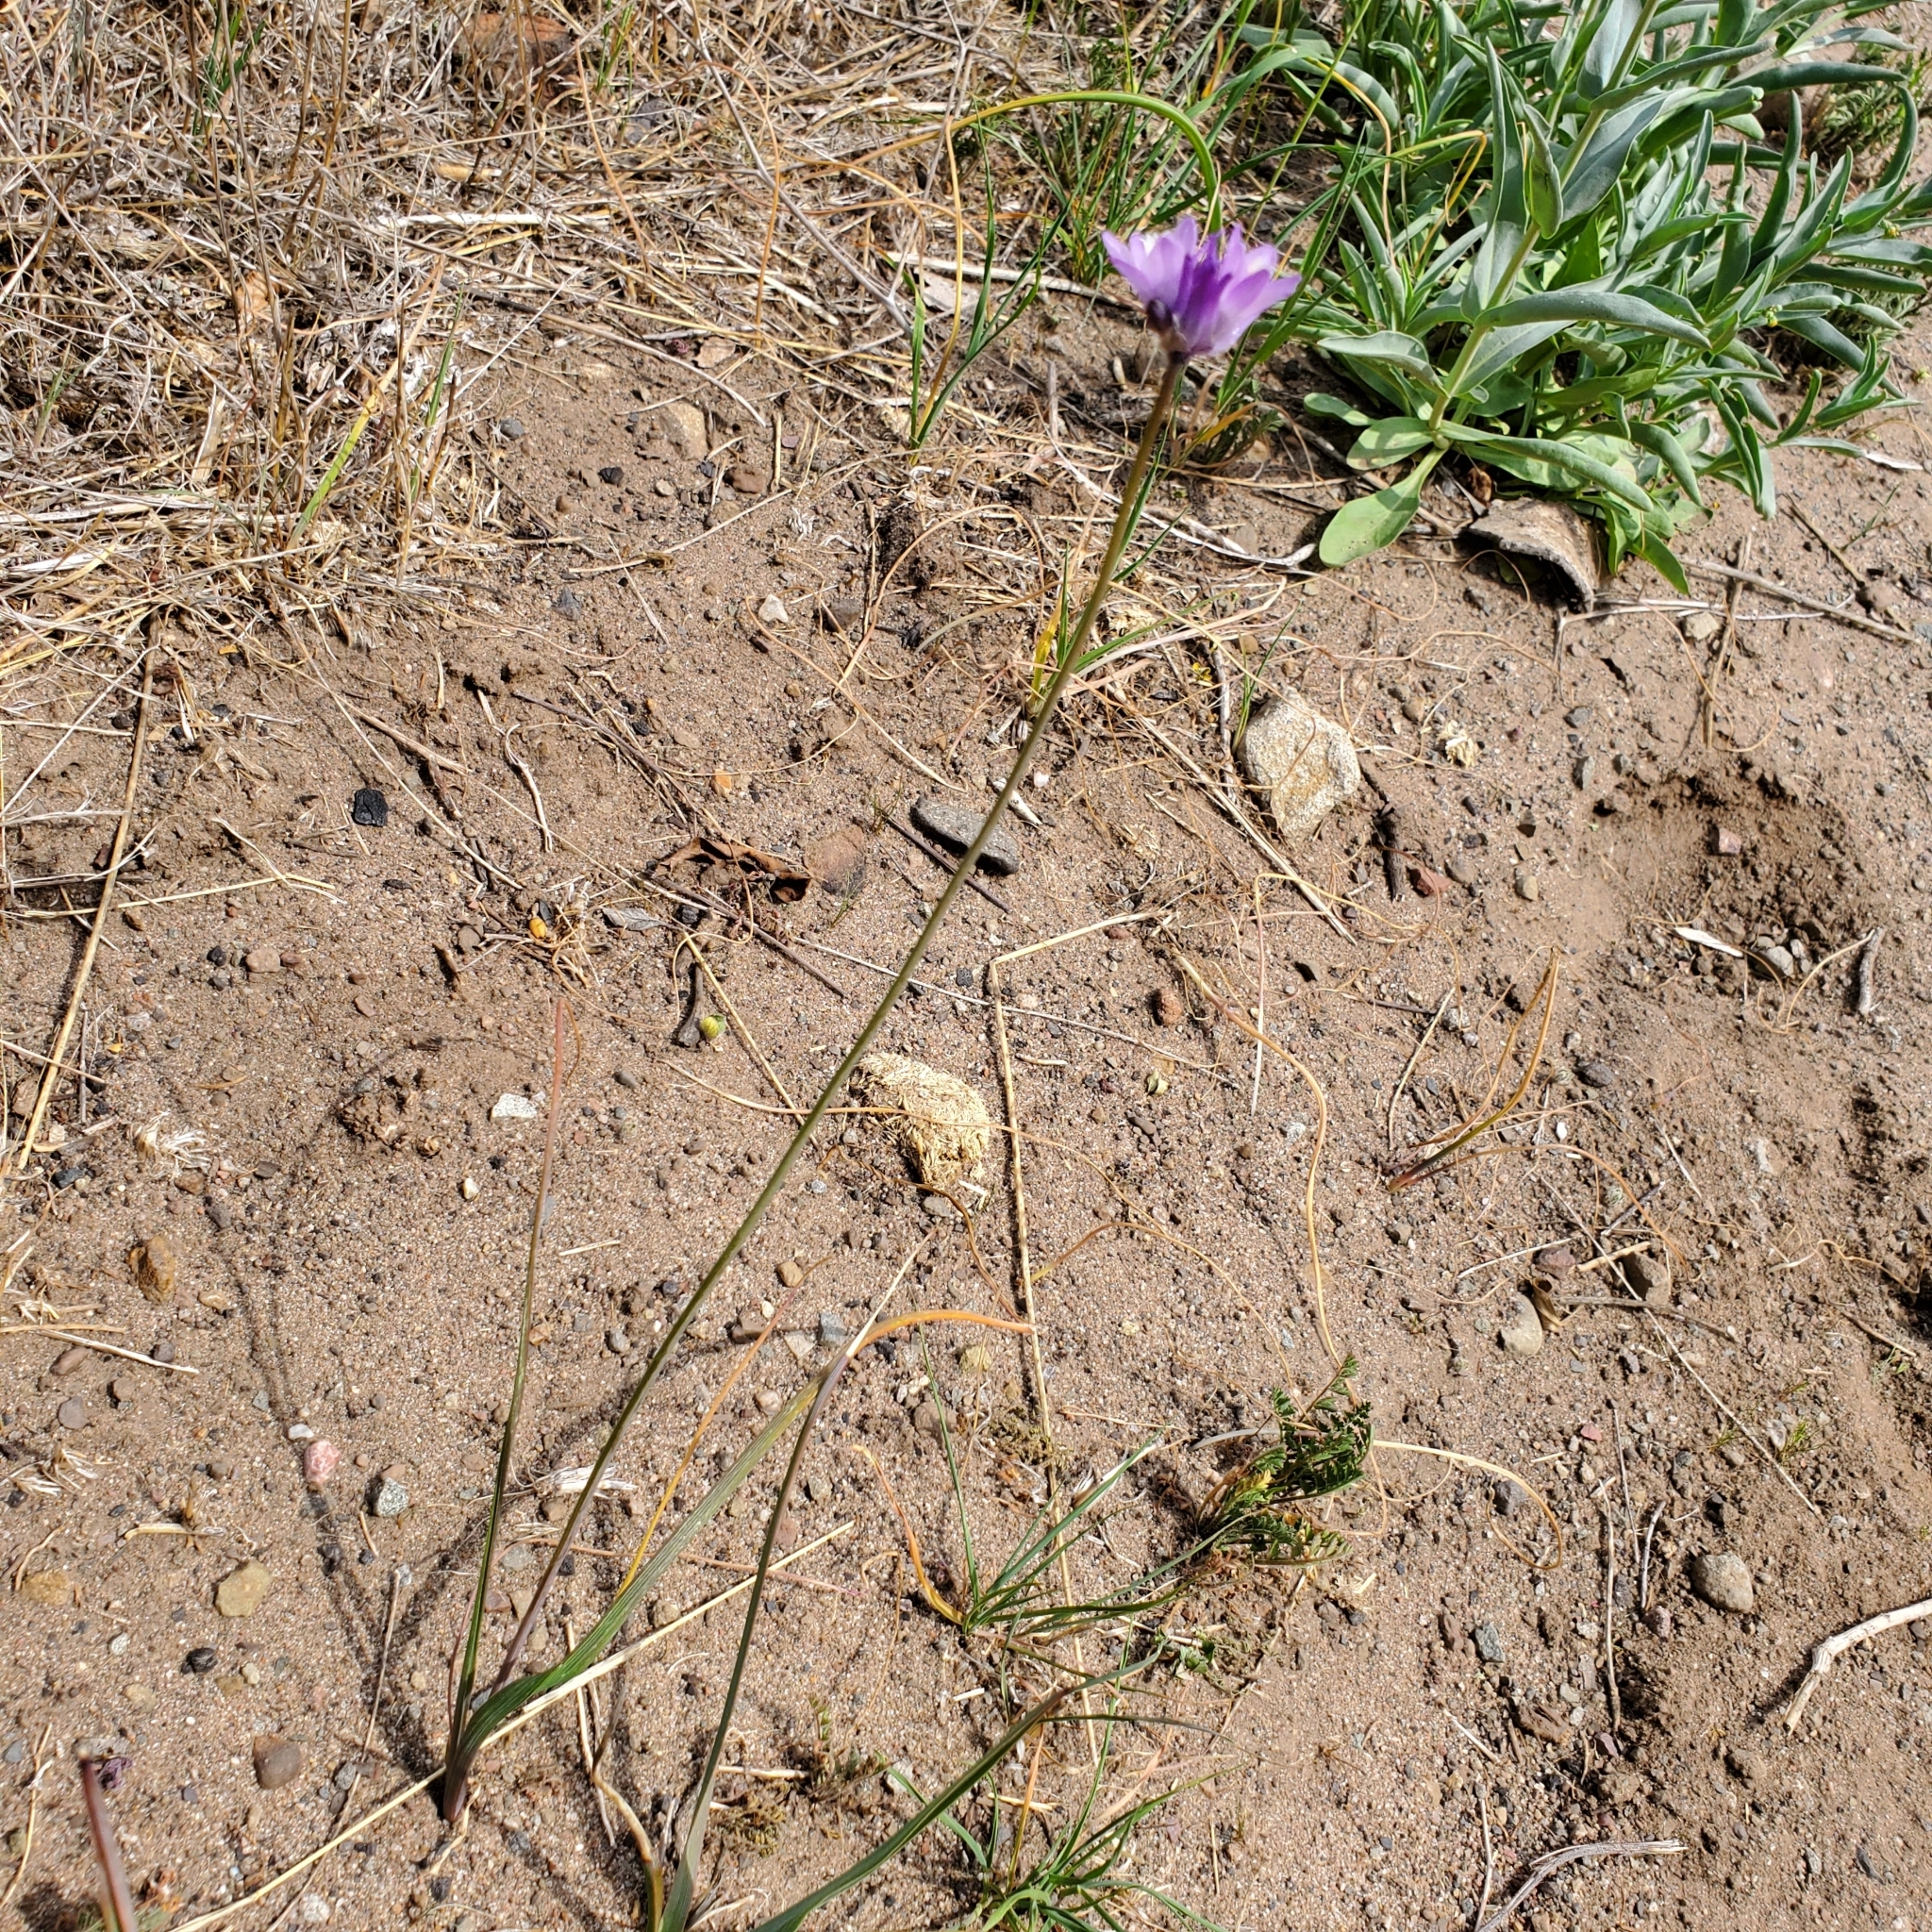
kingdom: Plantae
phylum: Tracheophyta
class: Liliopsida
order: Asparagales
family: Asparagaceae
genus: Dipterostemon
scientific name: Dipterostemon capitatus
